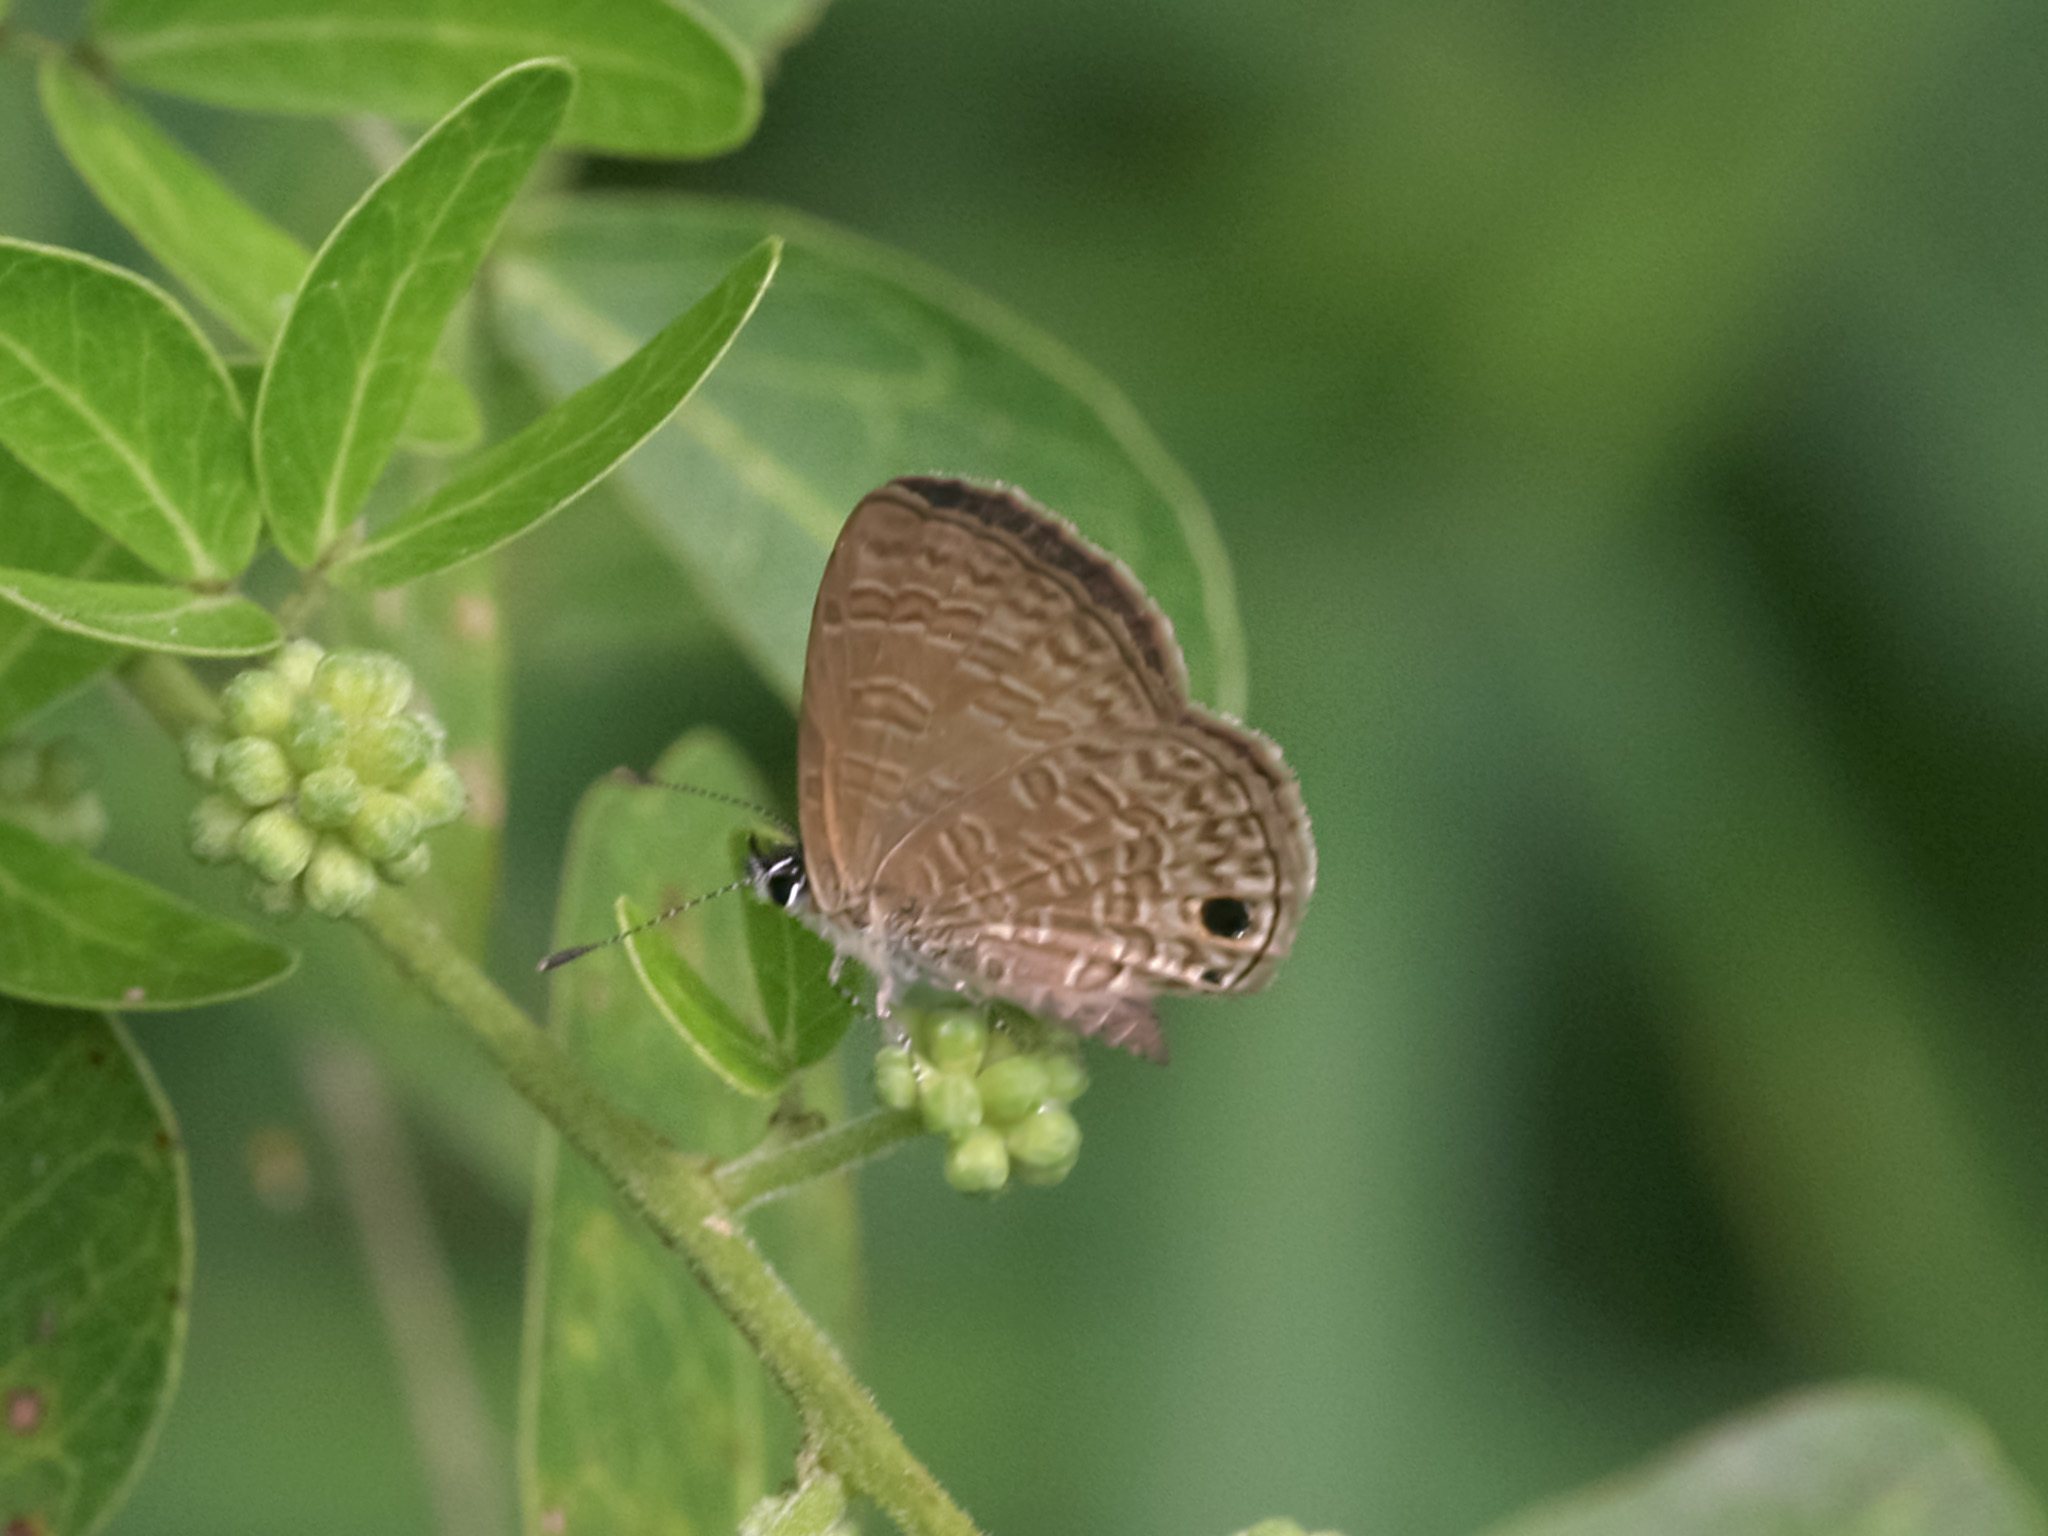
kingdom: Animalia
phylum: Arthropoda
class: Insecta
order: Lepidoptera
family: Lycaenidae
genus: Prosotas
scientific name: Prosotas dubiosa
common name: Tailless lineblue
